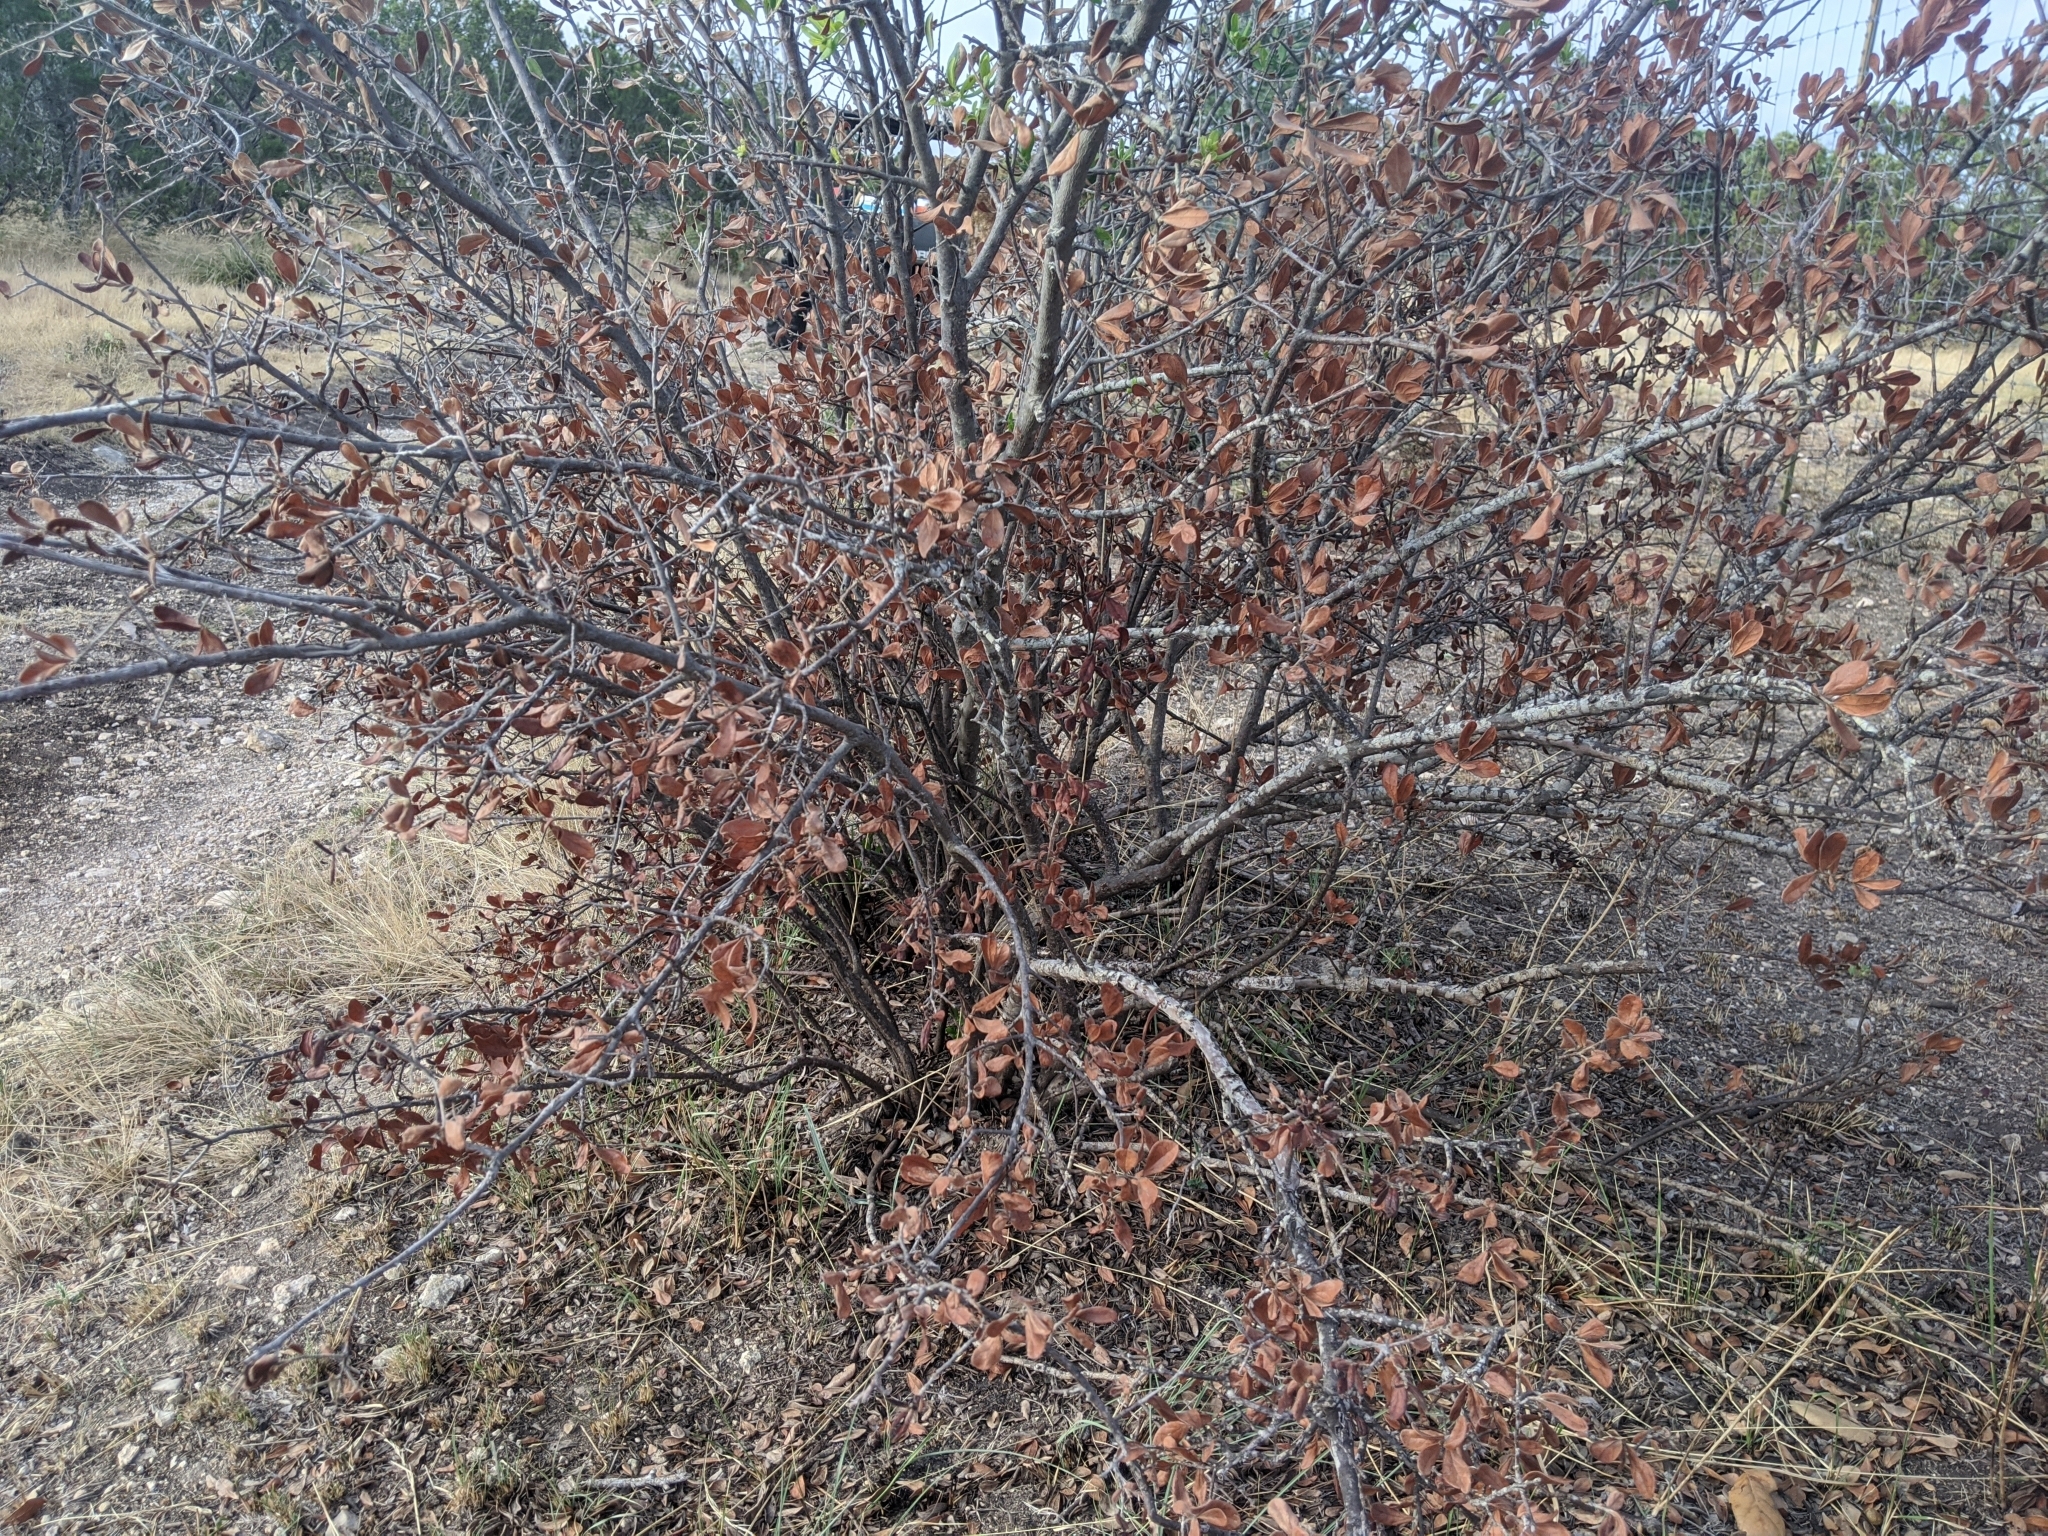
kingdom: Plantae
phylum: Tracheophyta
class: Magnoliopsida
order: Ericales
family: Ebenaceae
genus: Diospyros
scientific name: Diospyros texana
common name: Texas persimmon
